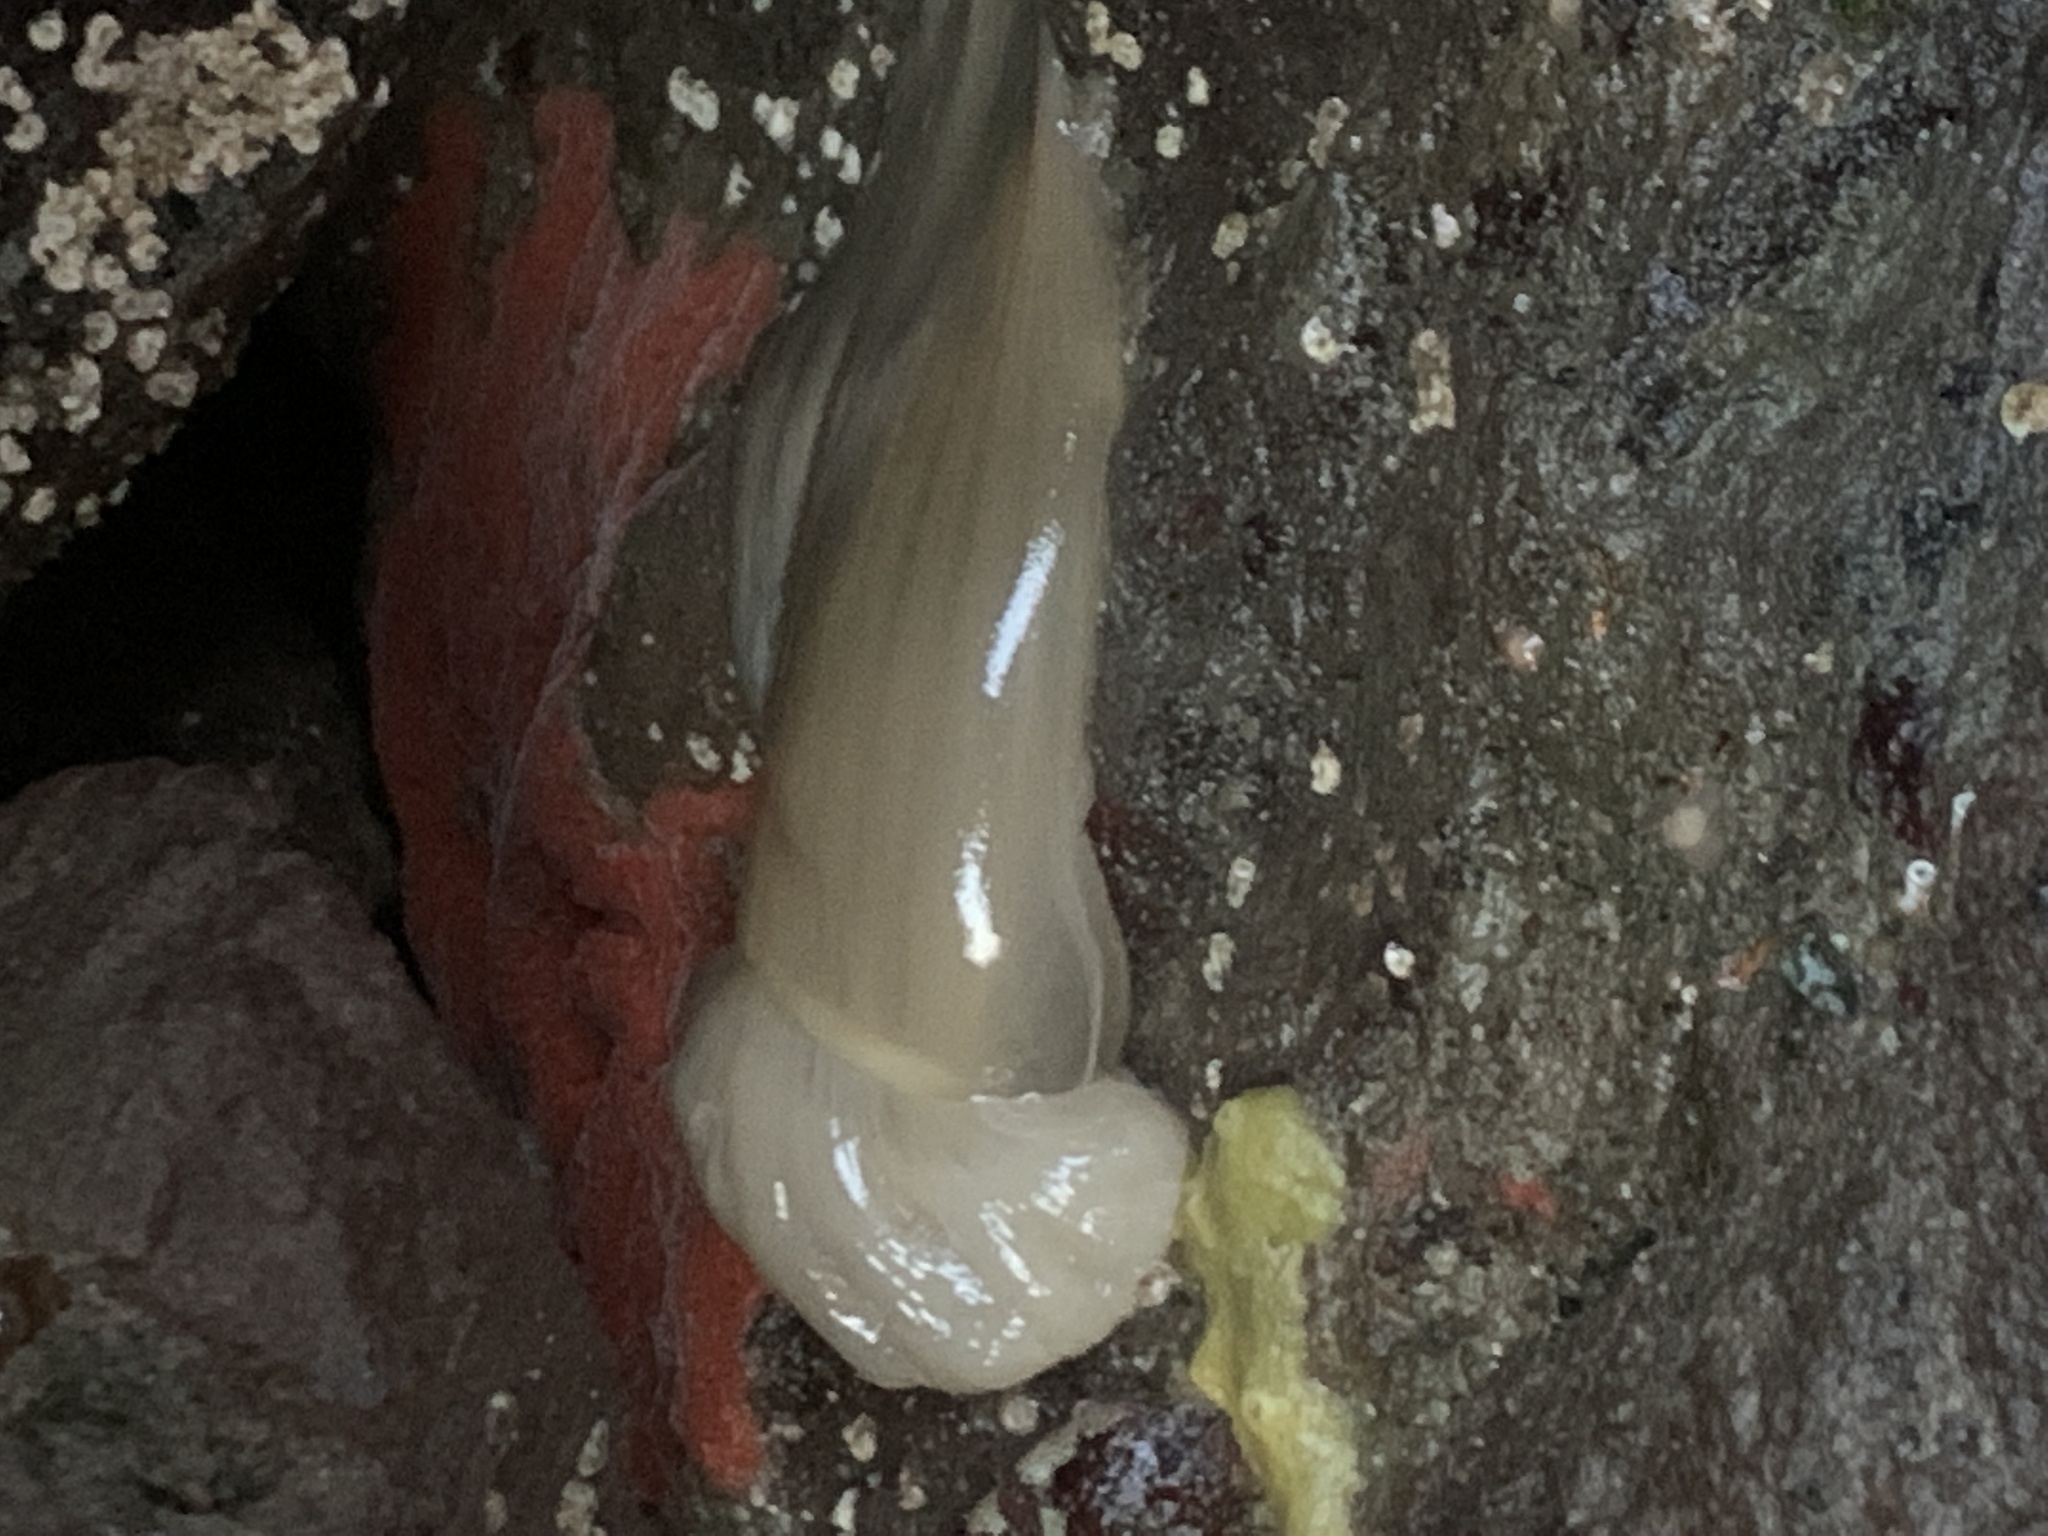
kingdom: Animalia
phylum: Cnidaria
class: Anthozoa
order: Actiniaria
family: Metridiidae
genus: Metridium
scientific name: Metridium senile
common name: Clonal plumose anemone
